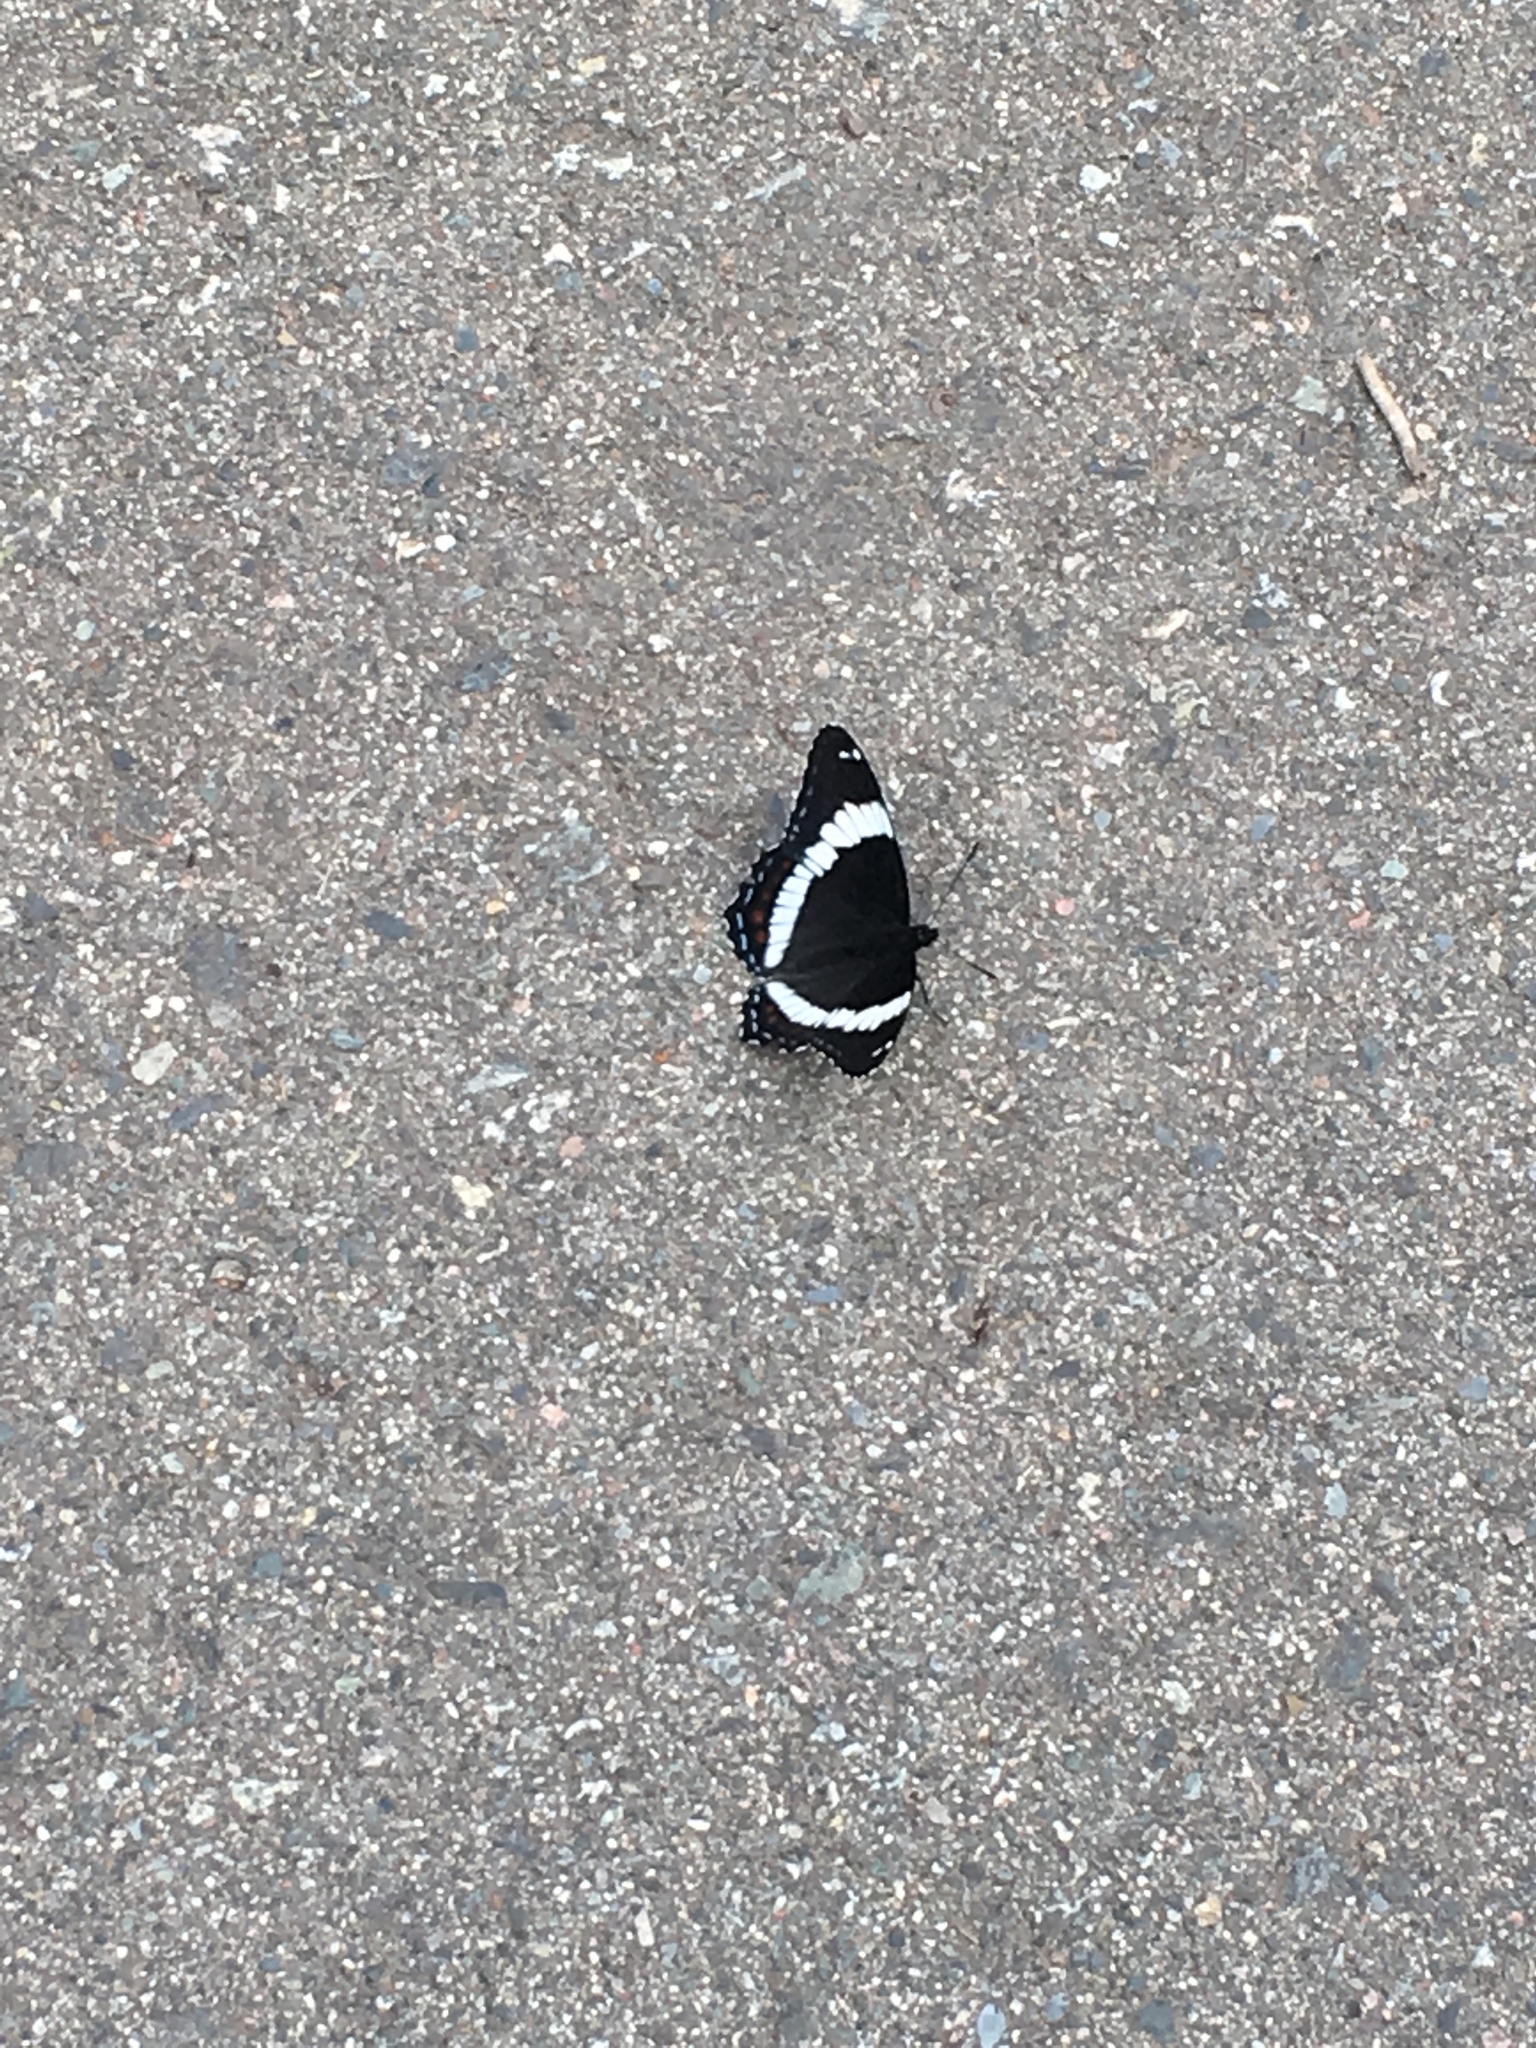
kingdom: Animalia
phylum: Arthropoda
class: Insecta
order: Lepidoptera
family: Nymphalidae
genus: Limenitis
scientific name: Limenitis arthemis
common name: Red-spotted admiral
